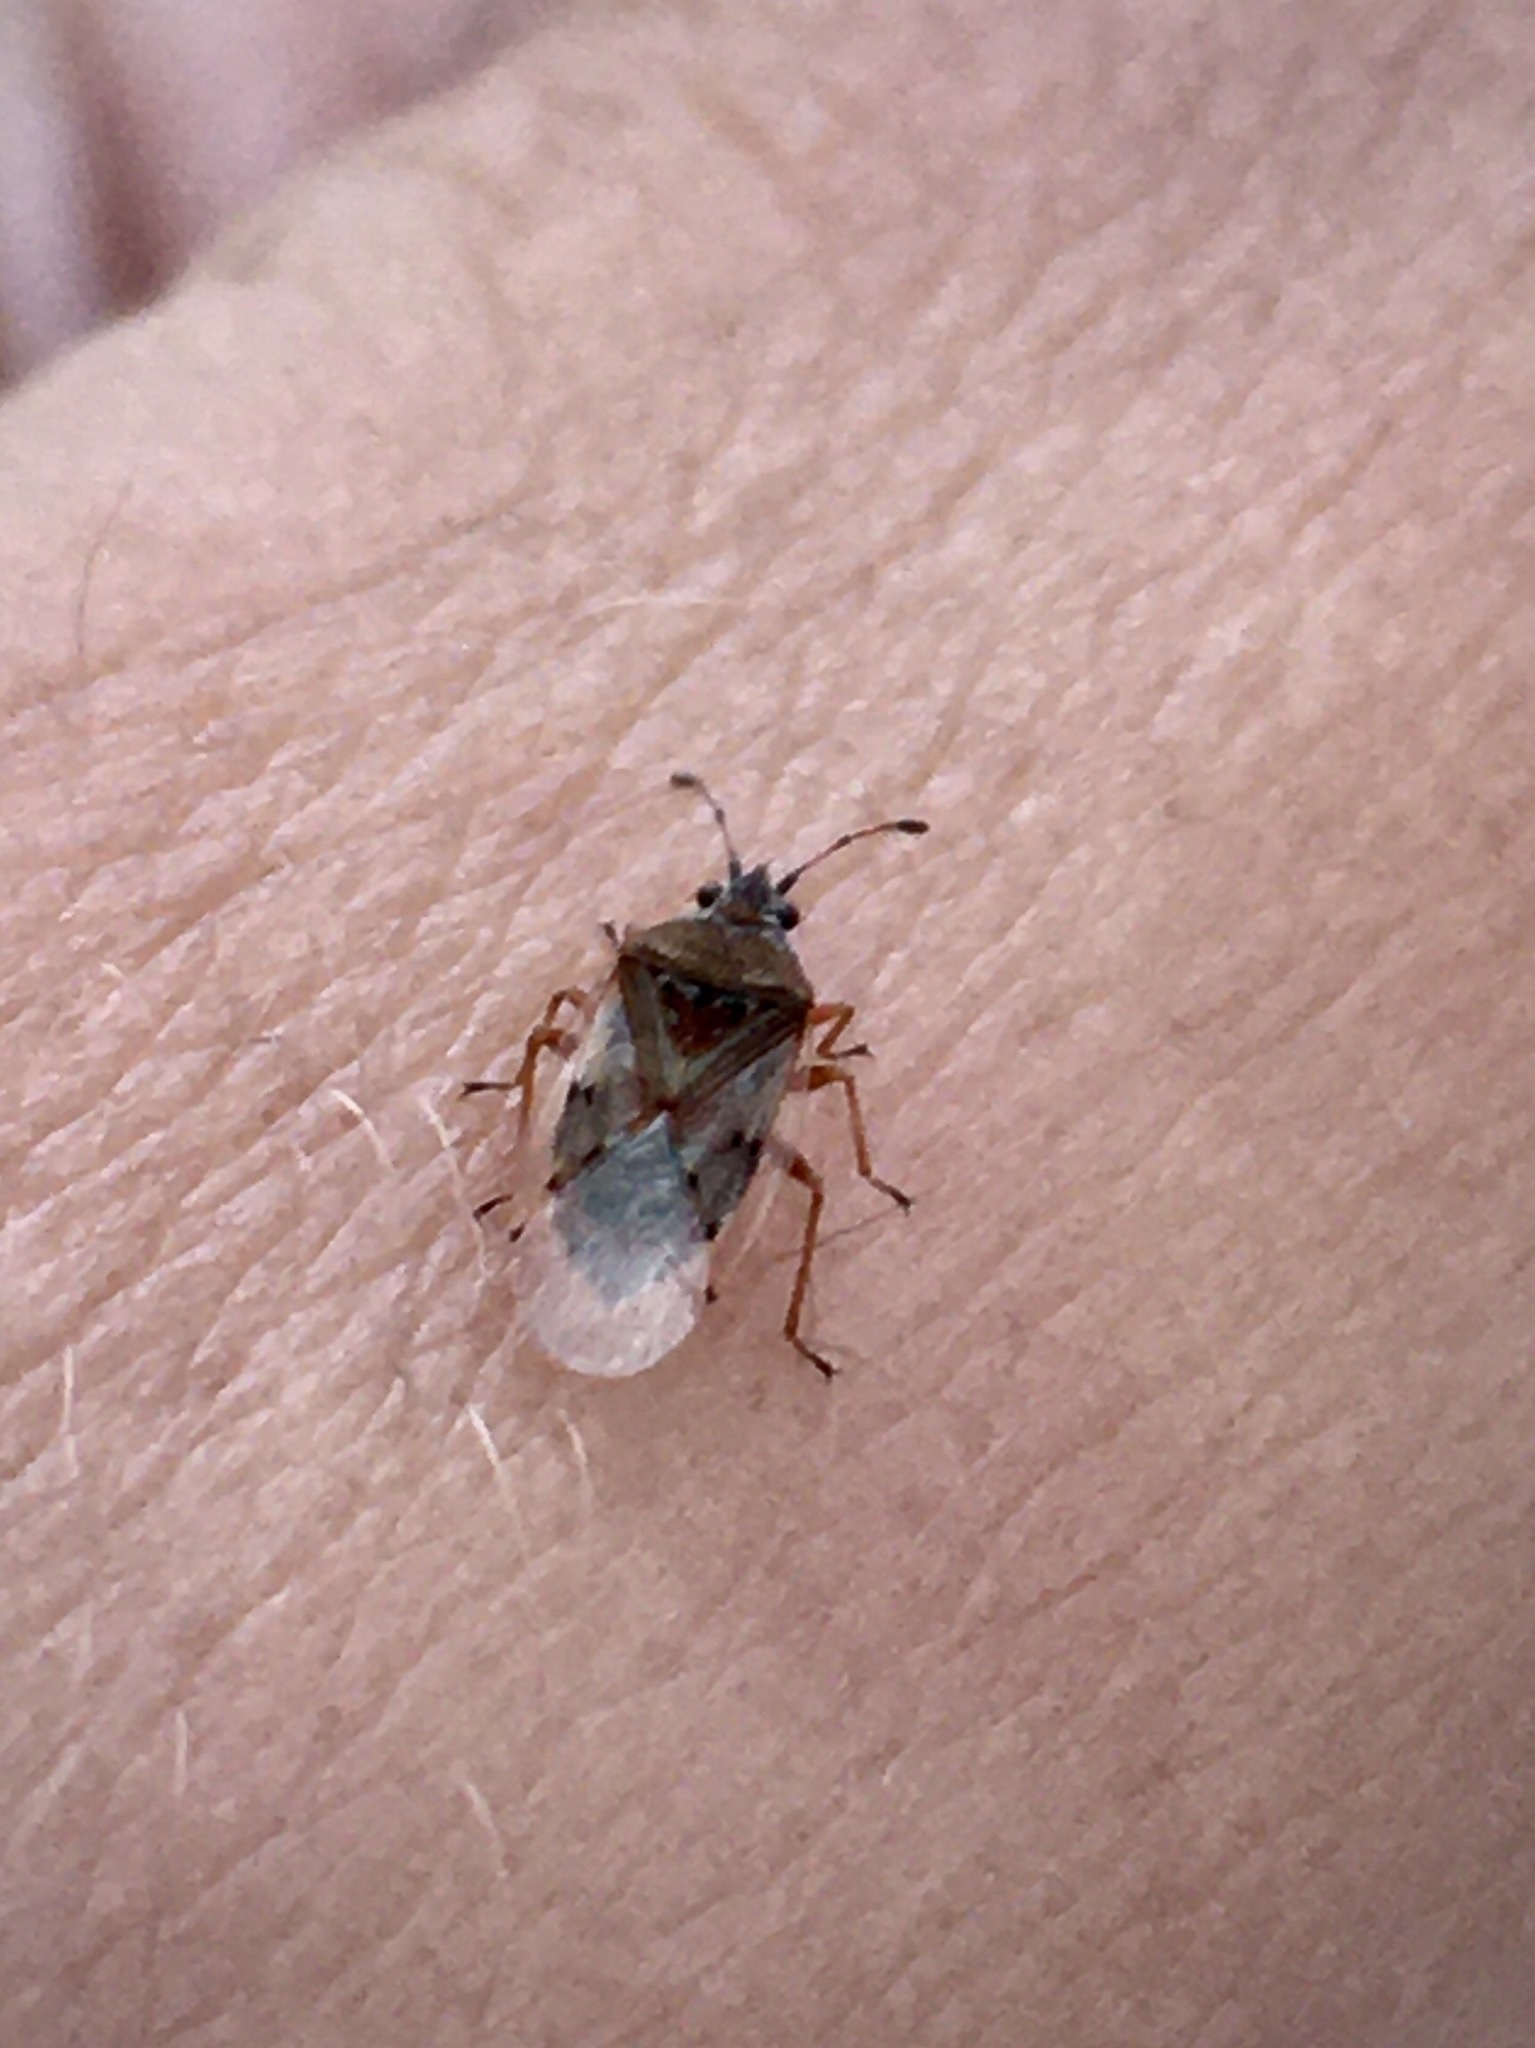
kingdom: Animalia
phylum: Arthropoda
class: Insecta
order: Hemiptera
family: Lygaeidae
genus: Kleidocerys
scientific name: Kleidocerys resedae
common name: Birch catkin bug
